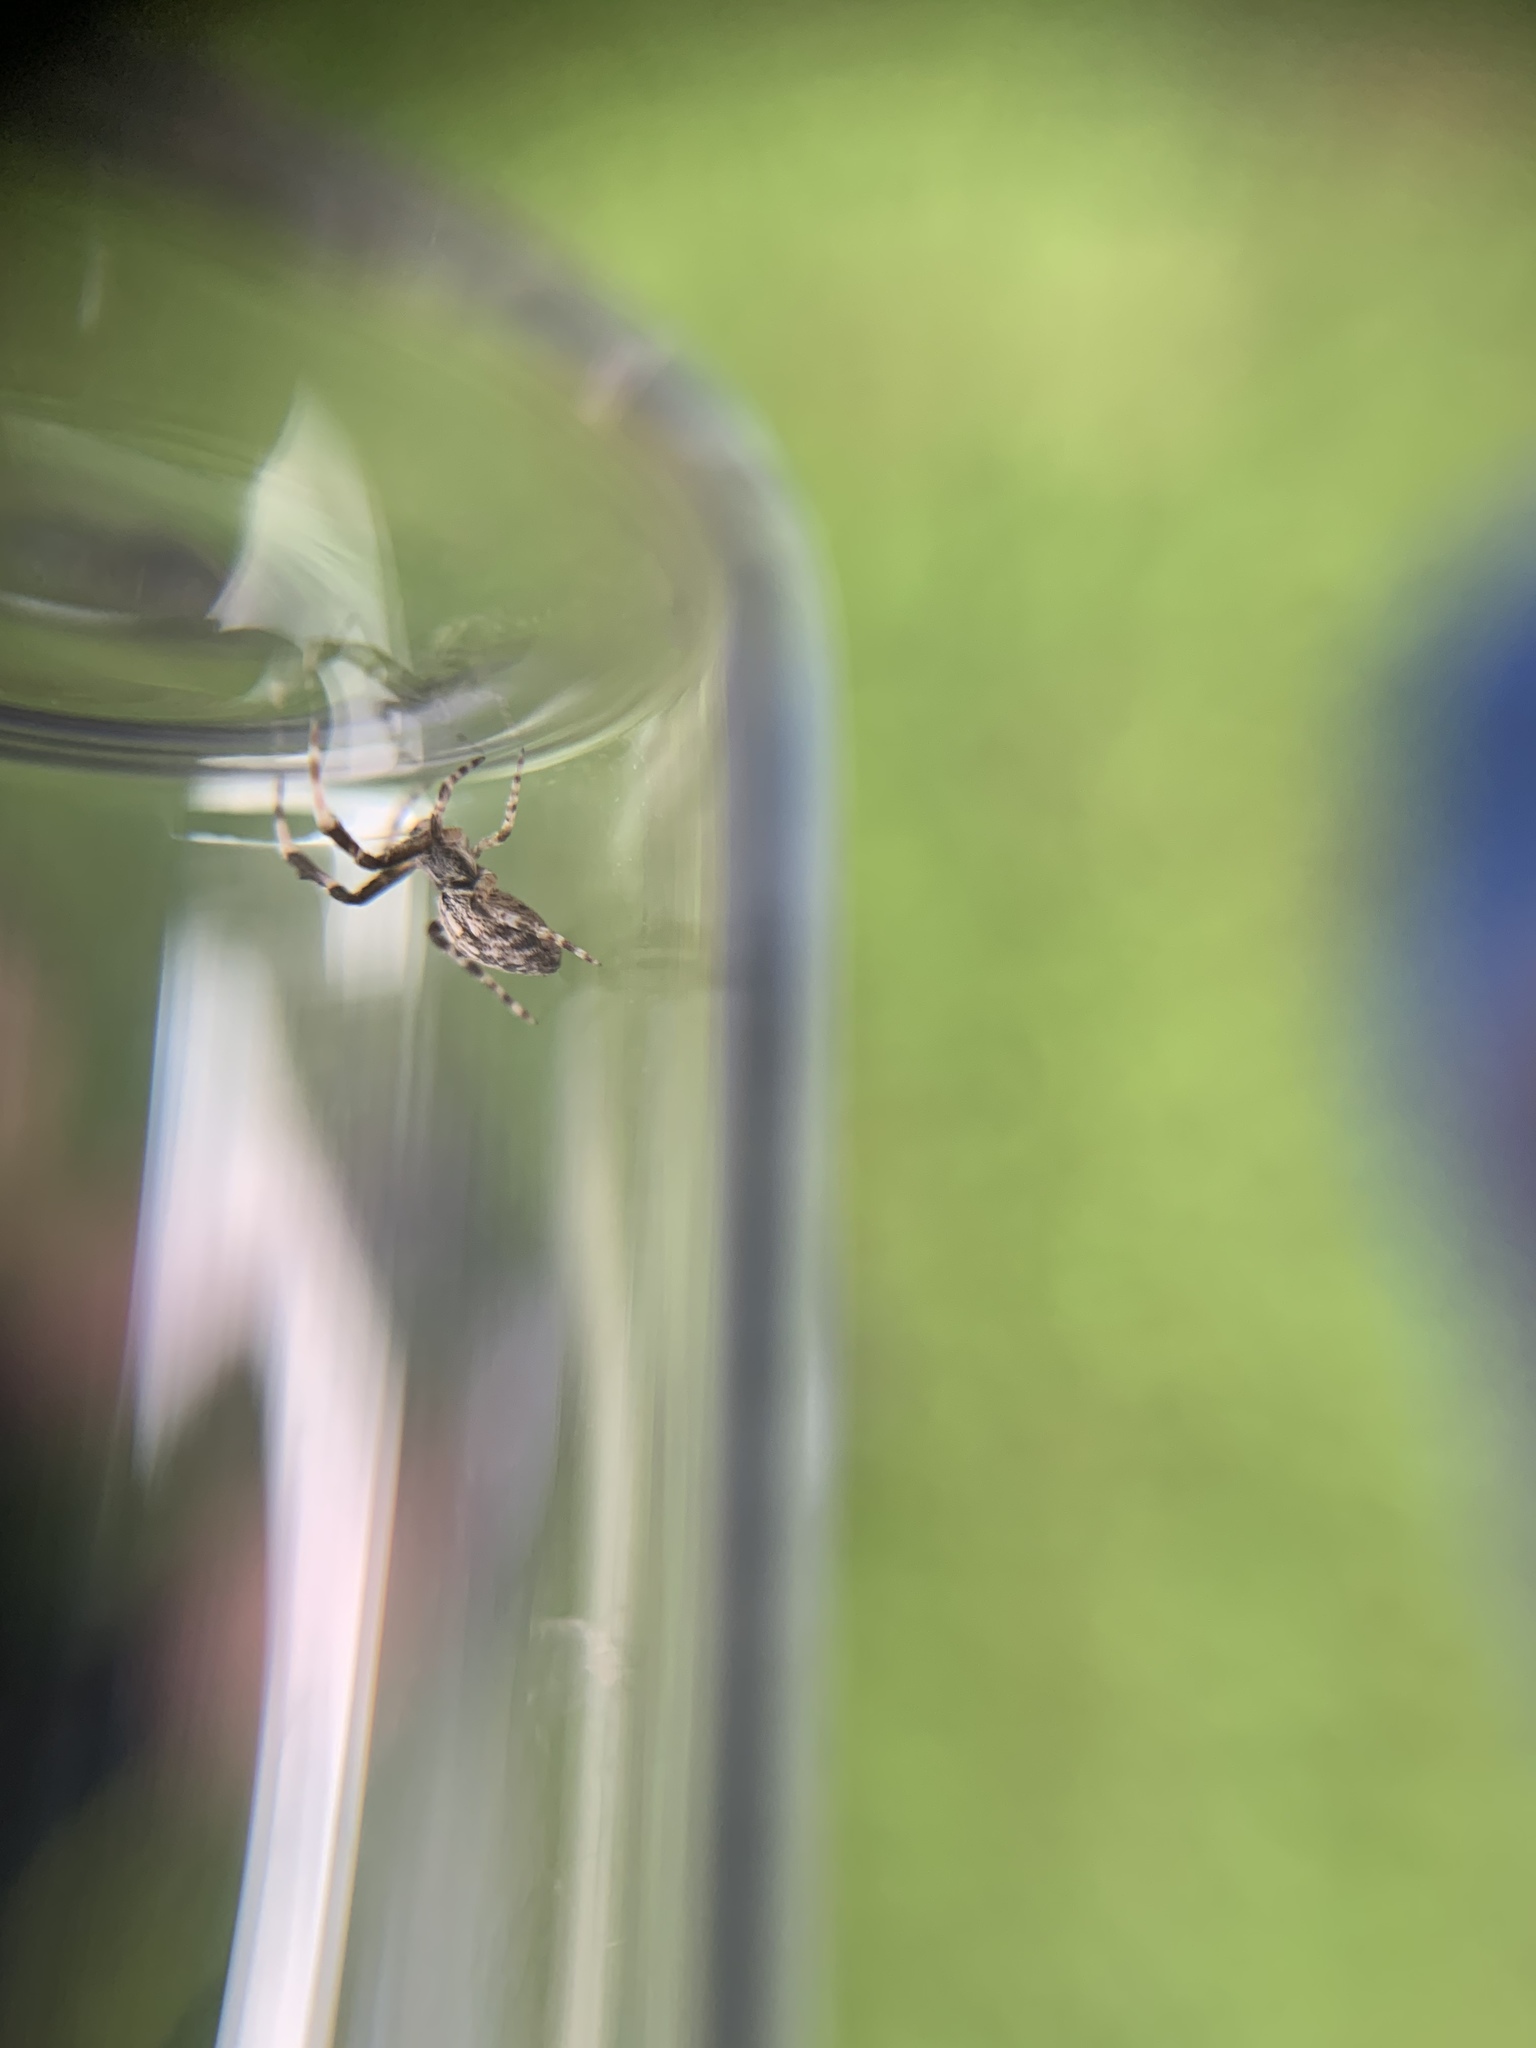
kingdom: Animalia
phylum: Arthropoda
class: Arachnida
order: Araneae
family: Uloboridae
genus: Uloborus
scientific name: Uloborus glomosus
